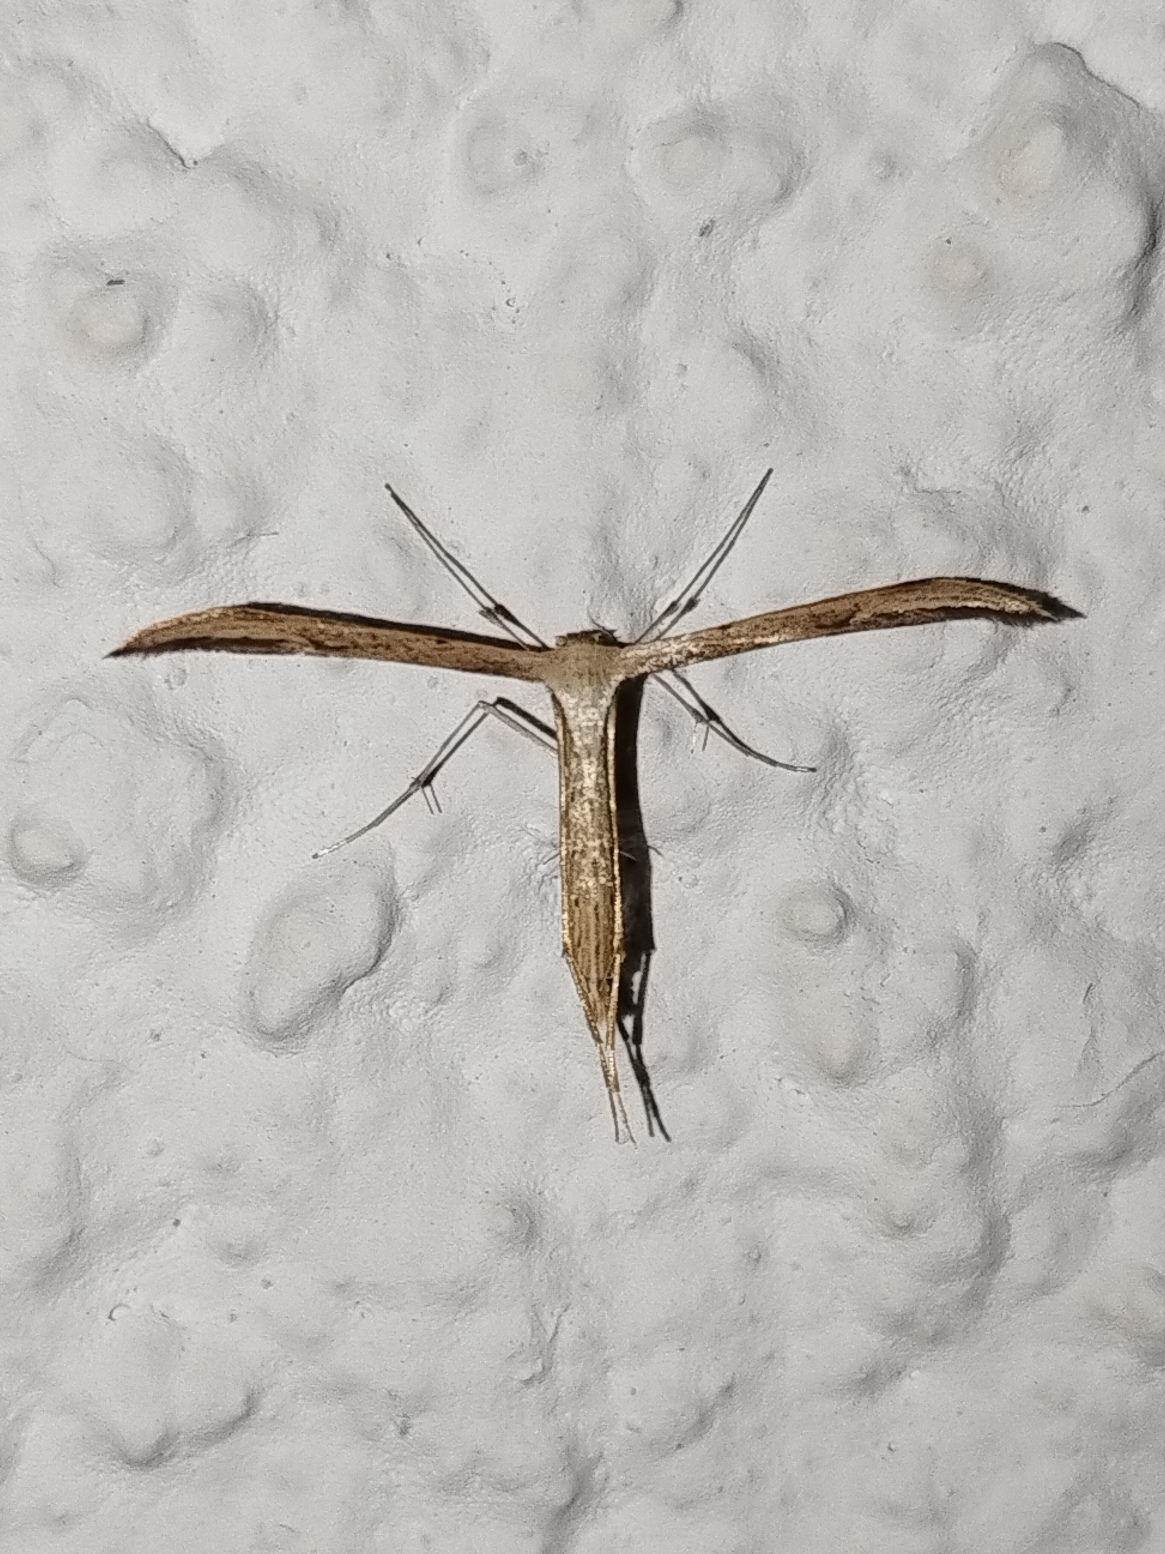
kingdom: Animalia
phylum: Arthropoda
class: Insecta
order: Lepidoptera
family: Pterophoridae
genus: Emmelina
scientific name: Emmelina monodactyla
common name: Common plume
